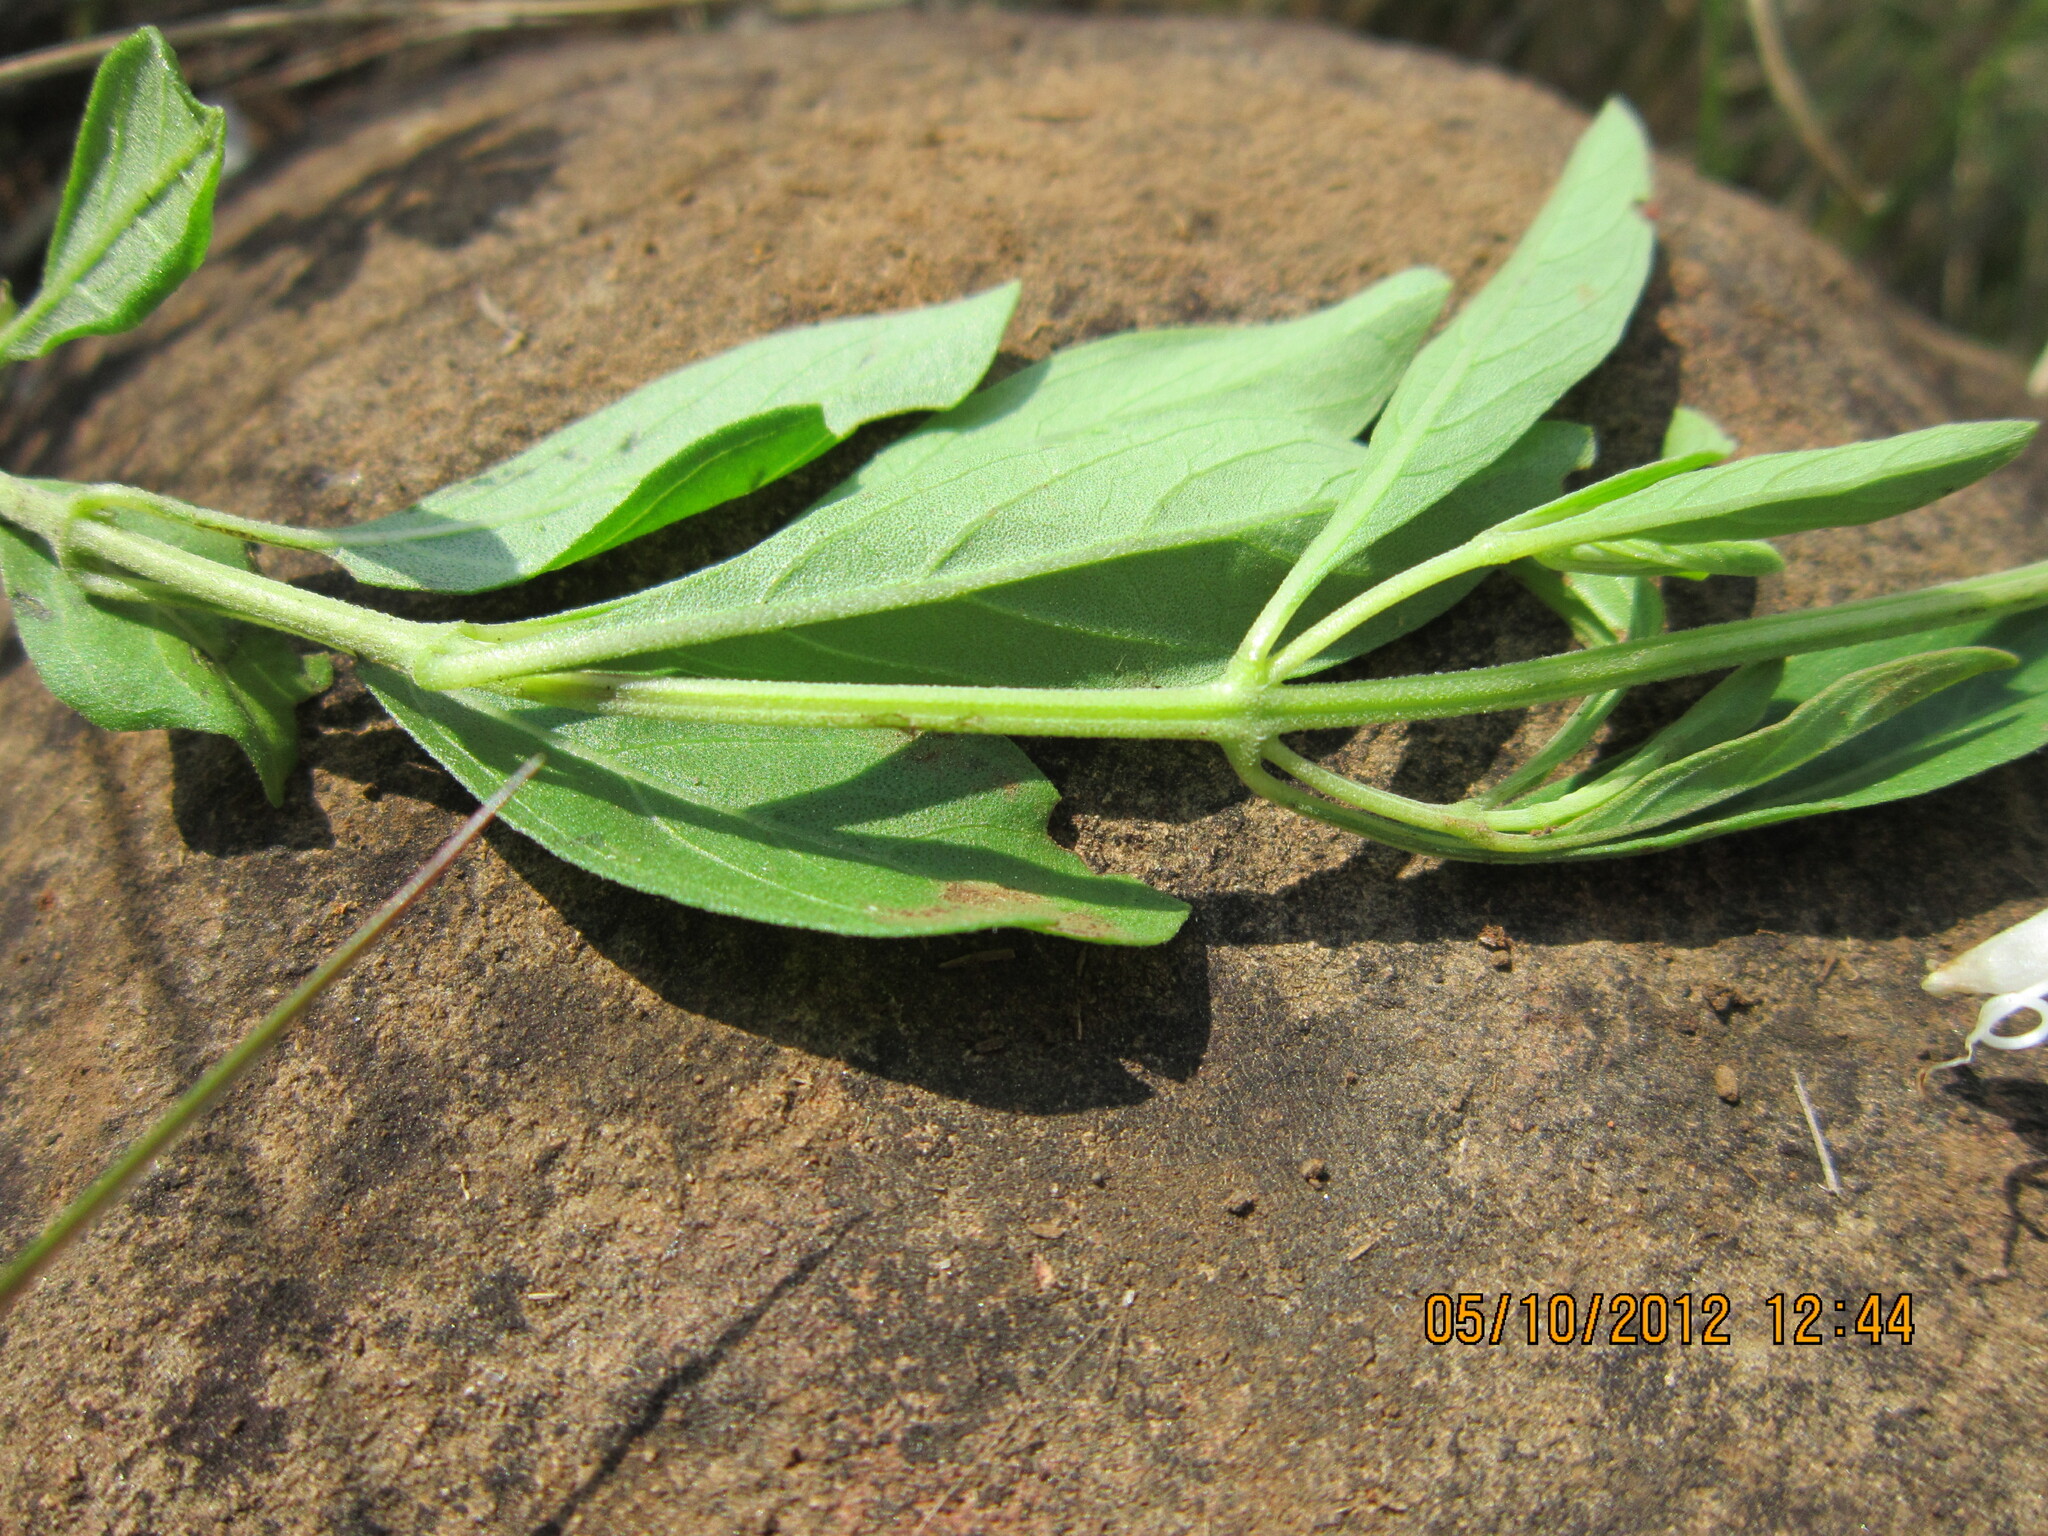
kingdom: Plantae
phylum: Tracheophyta
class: Magnoliopsida
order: Lamiales
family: Lamiaceae
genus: Ocimum
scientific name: Ocimum obovatum
